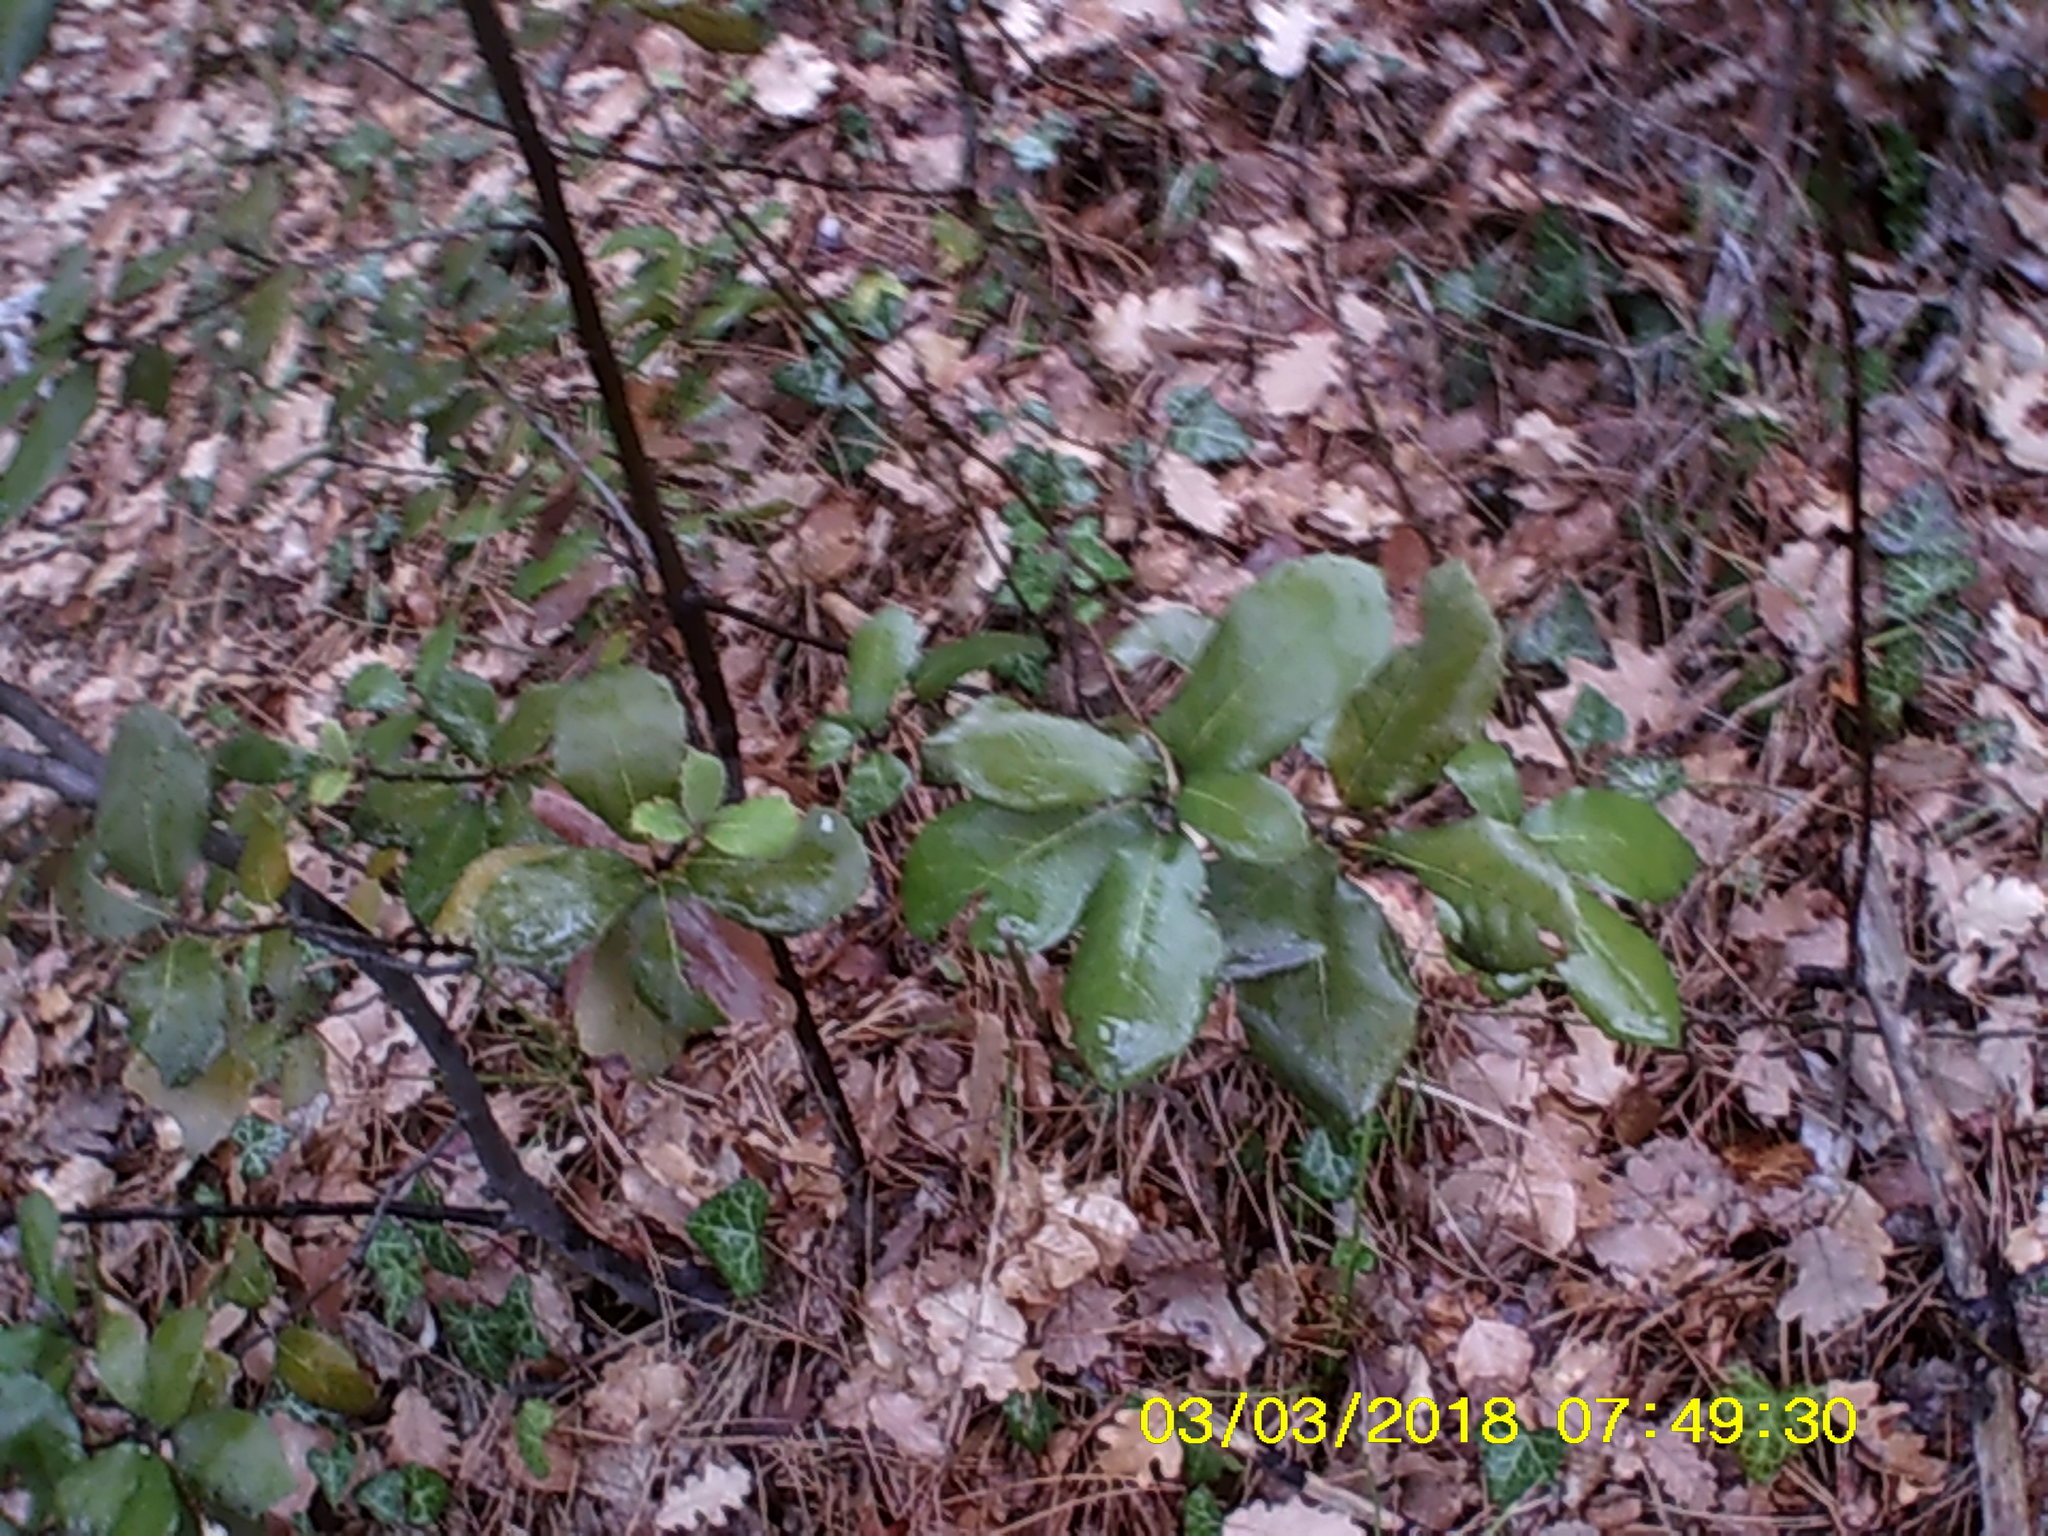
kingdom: Plantae
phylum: Tracheophyta
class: Magnoliopsida
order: Fagales
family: Fagaceae
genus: Quercus
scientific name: Quercus ilex
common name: Evergreen oak
